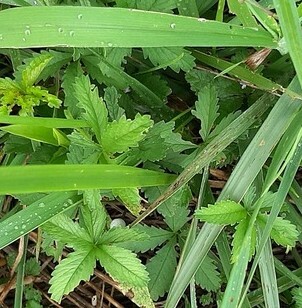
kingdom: Plantae
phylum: Tracheophyta
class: Magnoliopsida
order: Rosales
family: Rosaceae
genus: Potentilla
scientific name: Potentilla reptans
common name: Creeping cinquefoil
